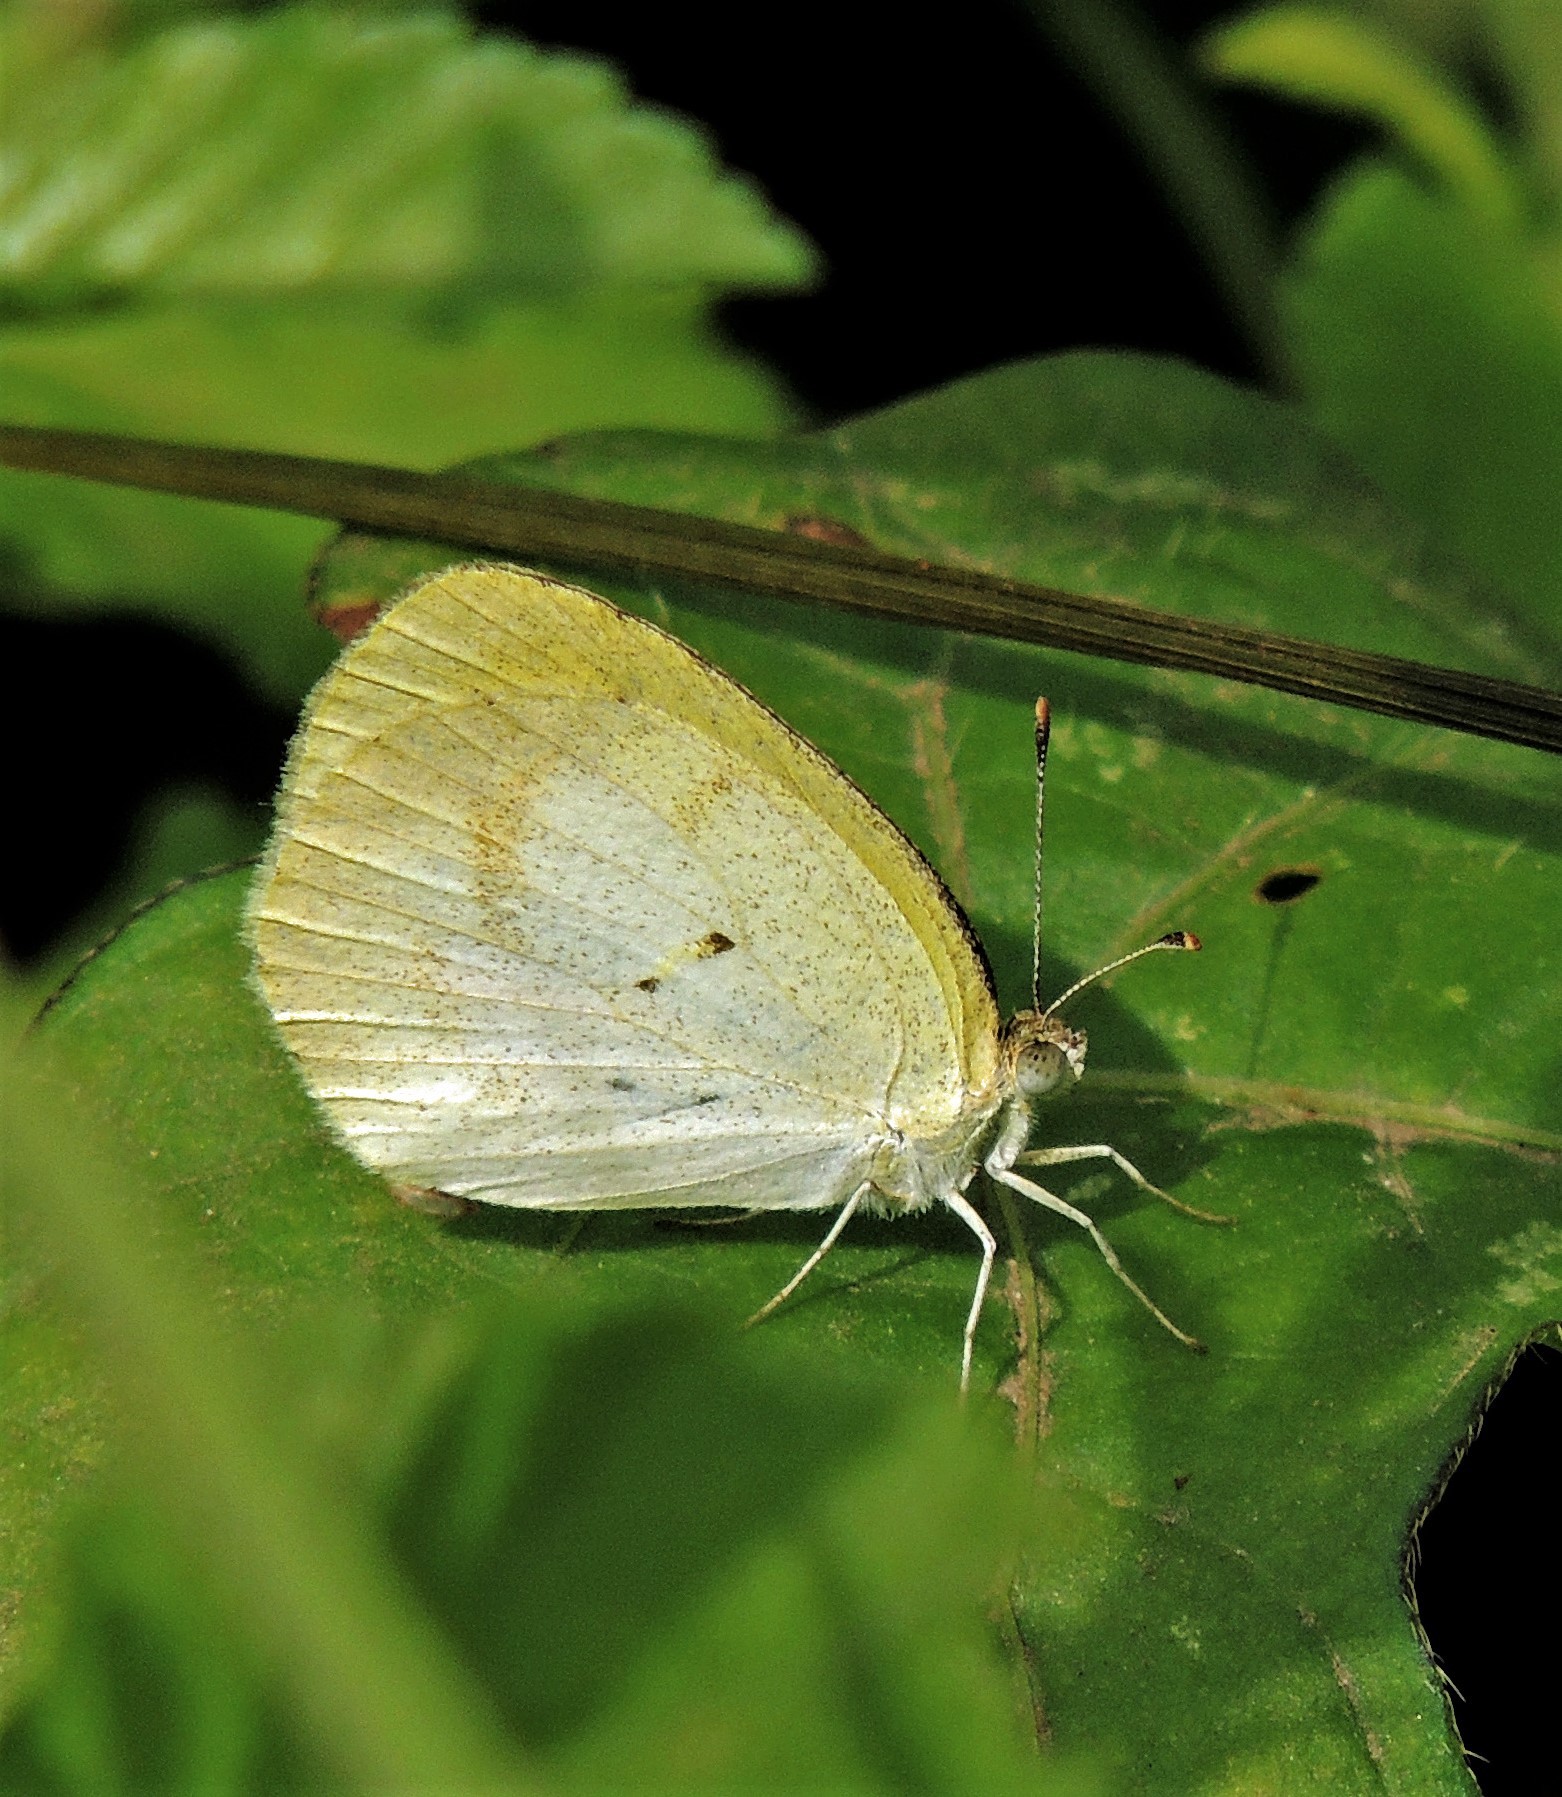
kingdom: Animalia
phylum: Arthropoda
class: Insecta
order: Lepidoptera
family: Pieridae
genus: Eurema
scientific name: Eurema elathea
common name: Banded yellow
